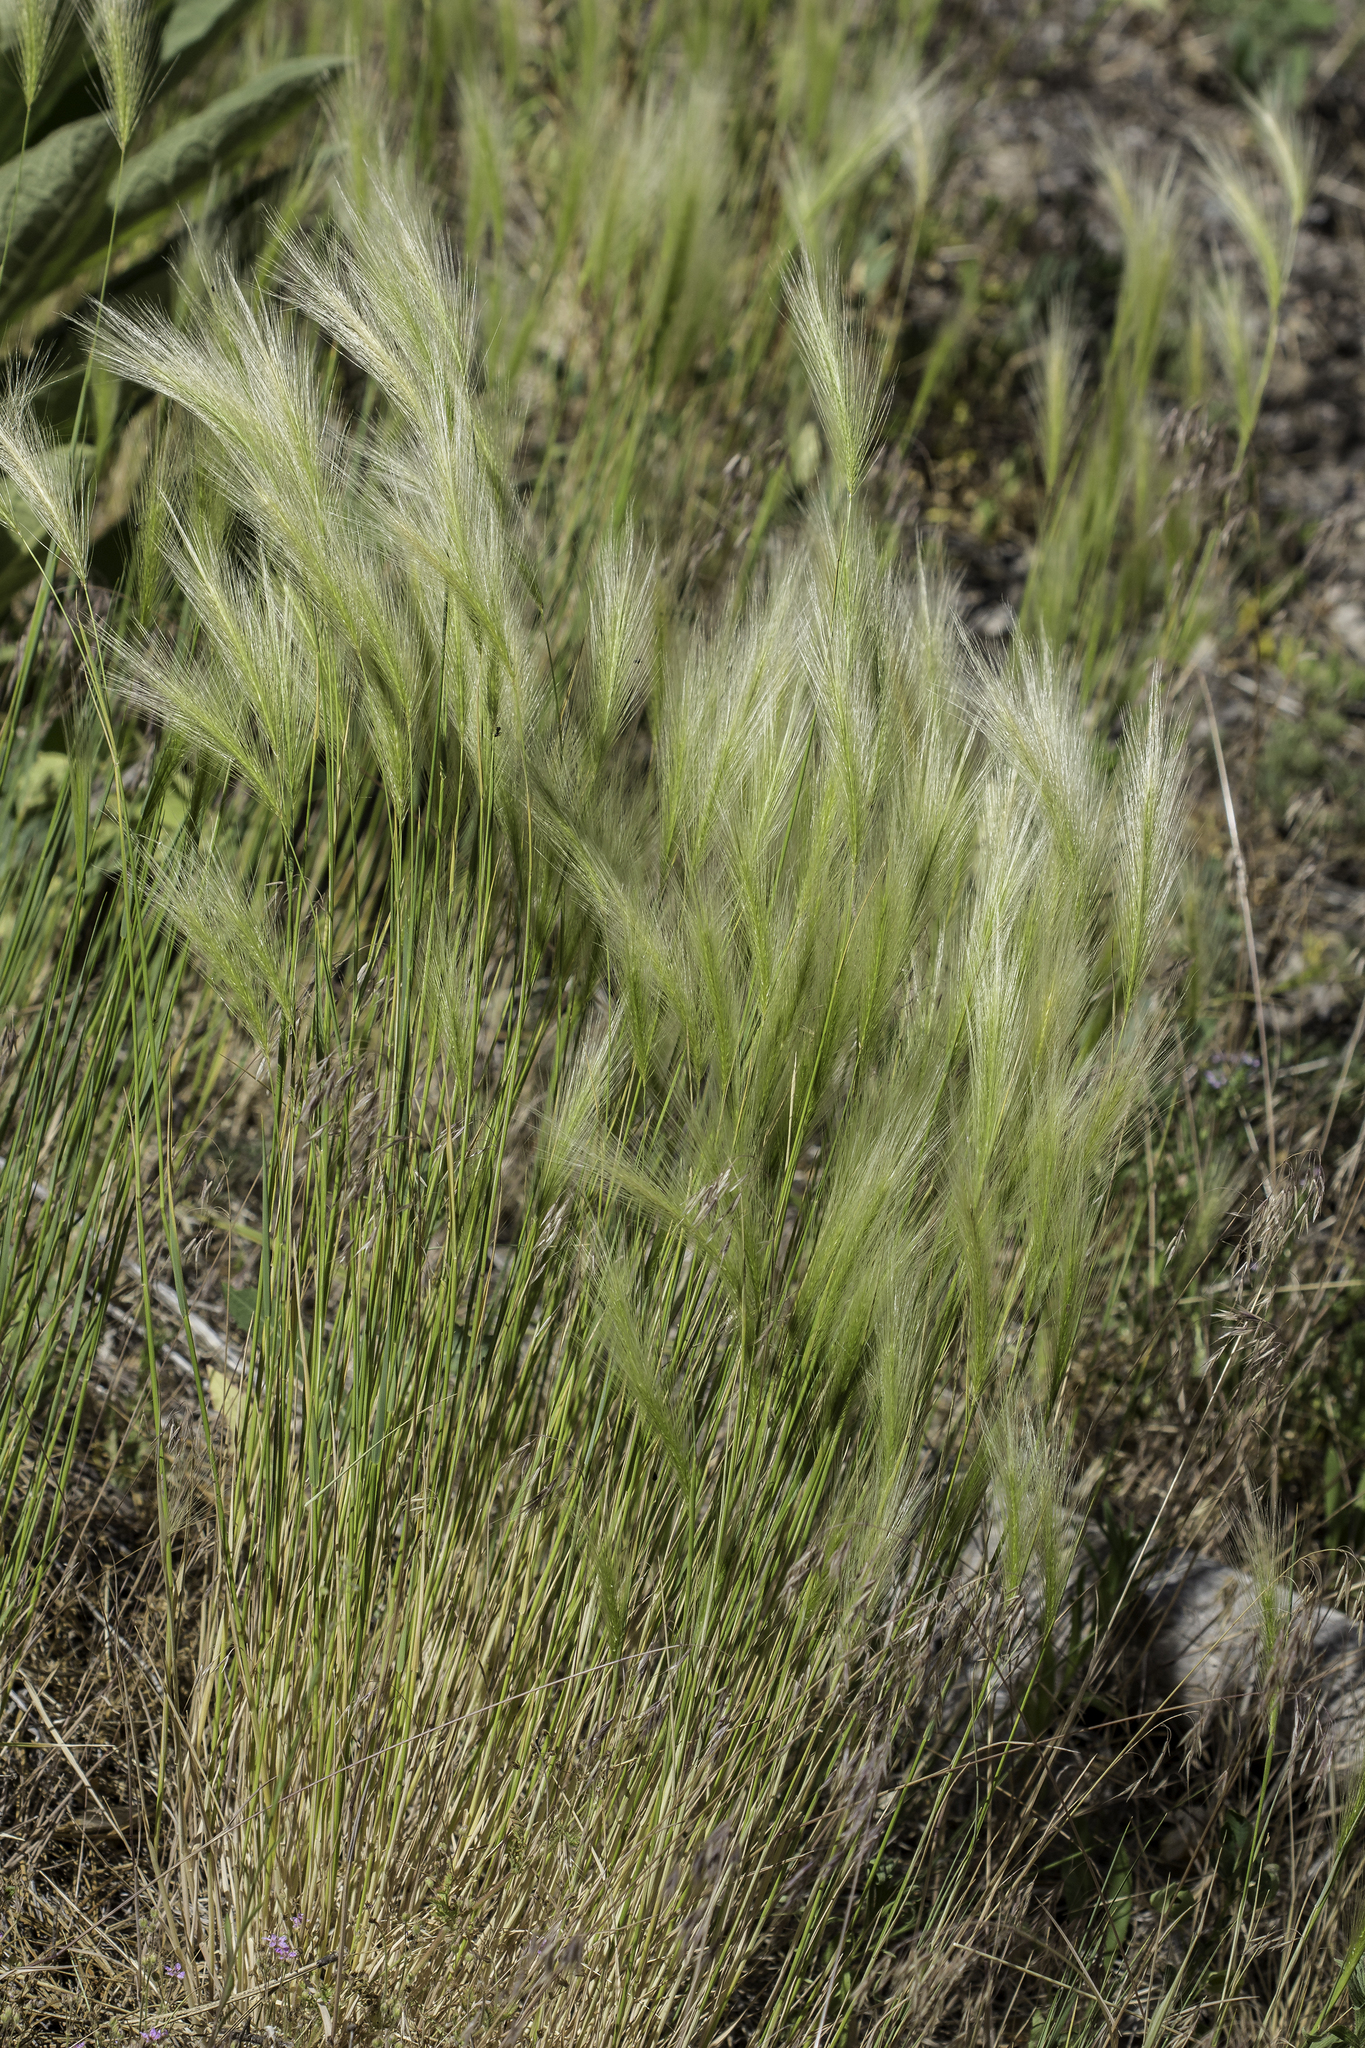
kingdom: Plantae
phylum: Tracheophyta
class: Liliopsida
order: Poales
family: Poaceae
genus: Hordeum
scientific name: Hordeum jubatum
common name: Foxtail barley
